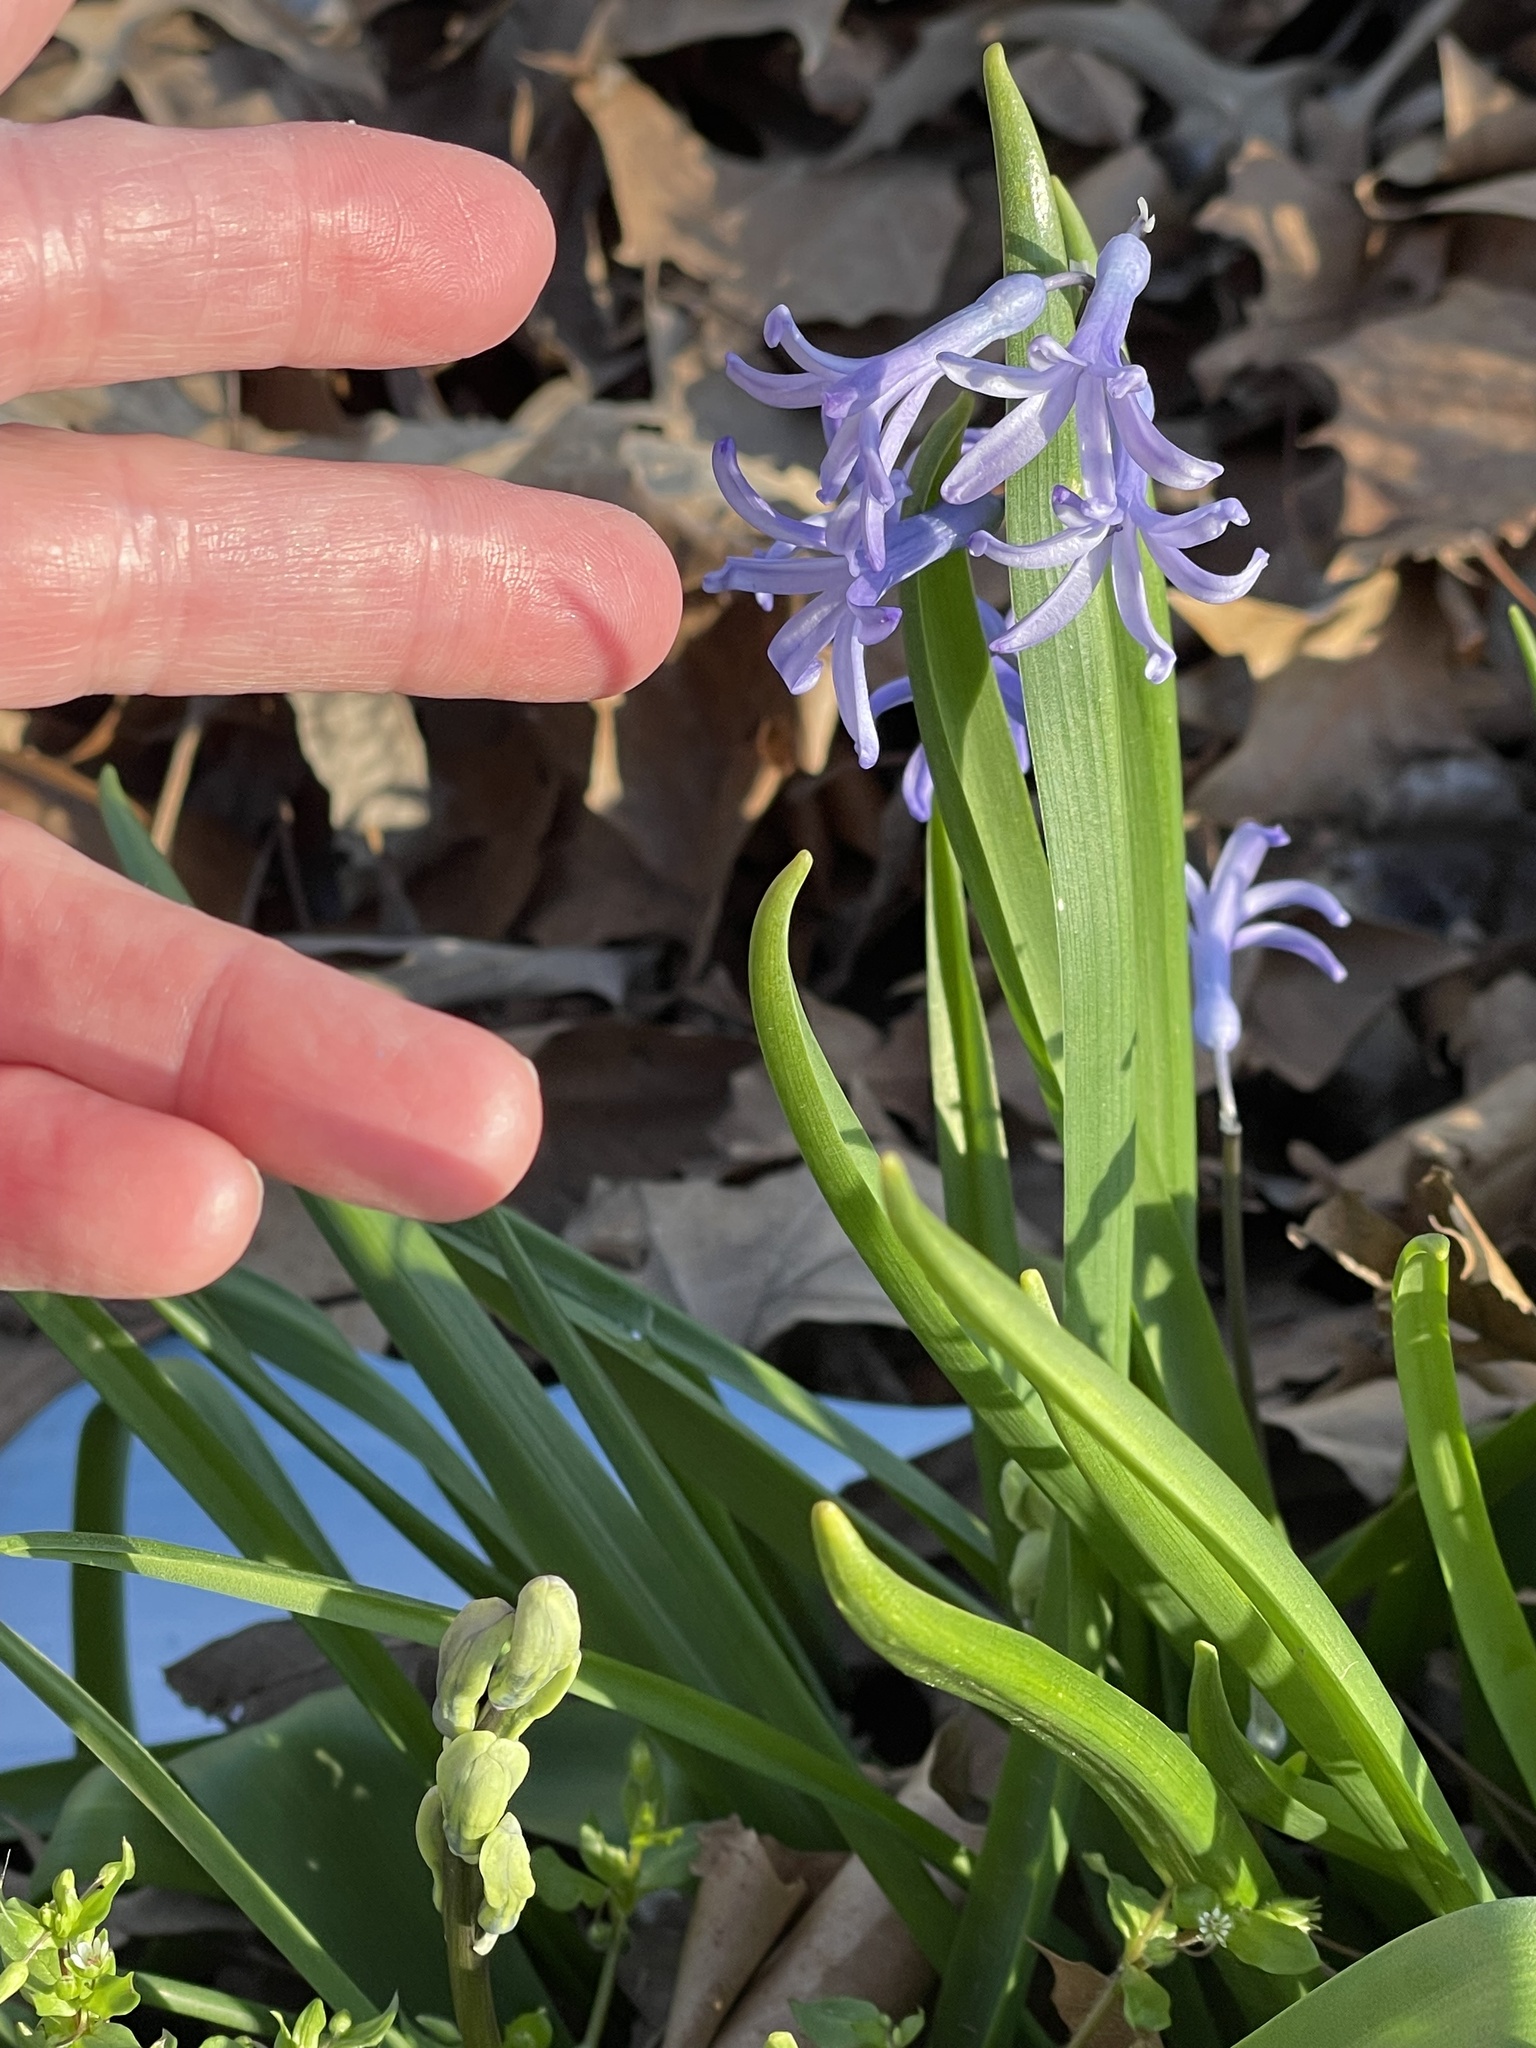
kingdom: Plantae
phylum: Tracheophyta
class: Liliopsida
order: Asparagales
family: Asparagaceae
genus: Hyacinthus
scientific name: Hyacinthus orientalis
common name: Hyacinth
